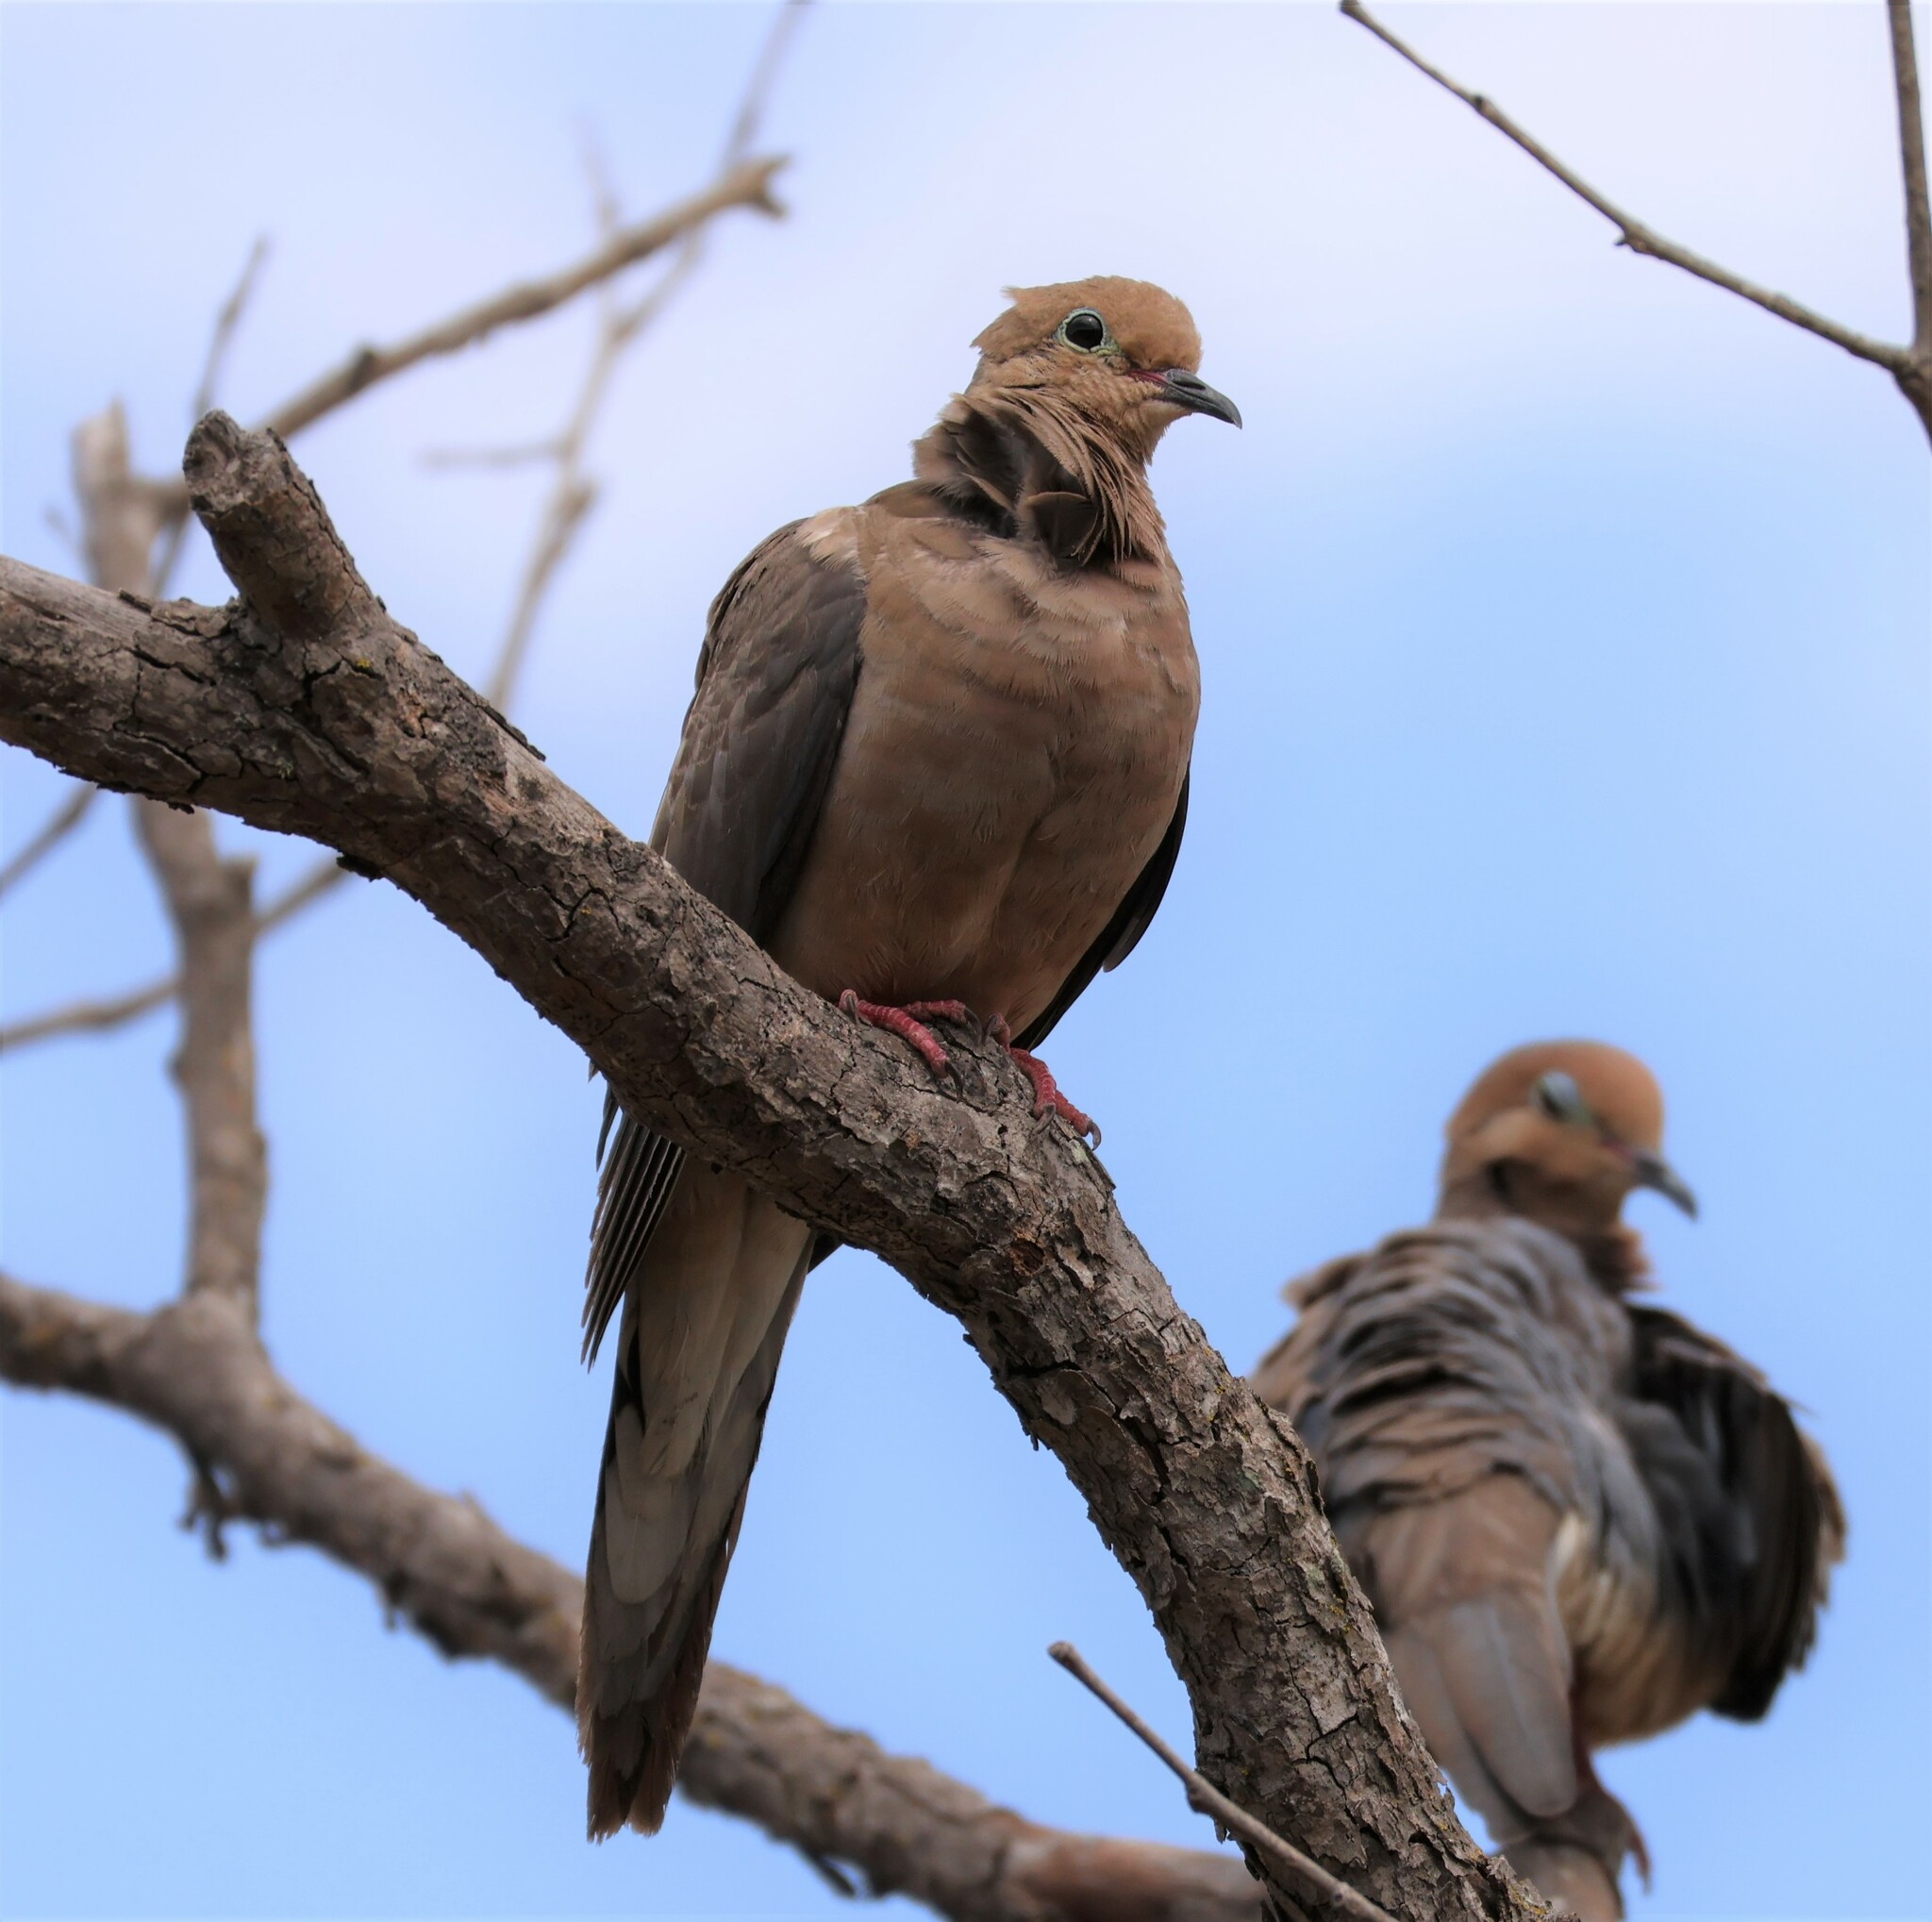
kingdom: Animalia
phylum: Chordata
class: Aves
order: Columbiformes
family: Columbidae
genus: Zenaida
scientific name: Zenaida macroura
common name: Mourning dove
